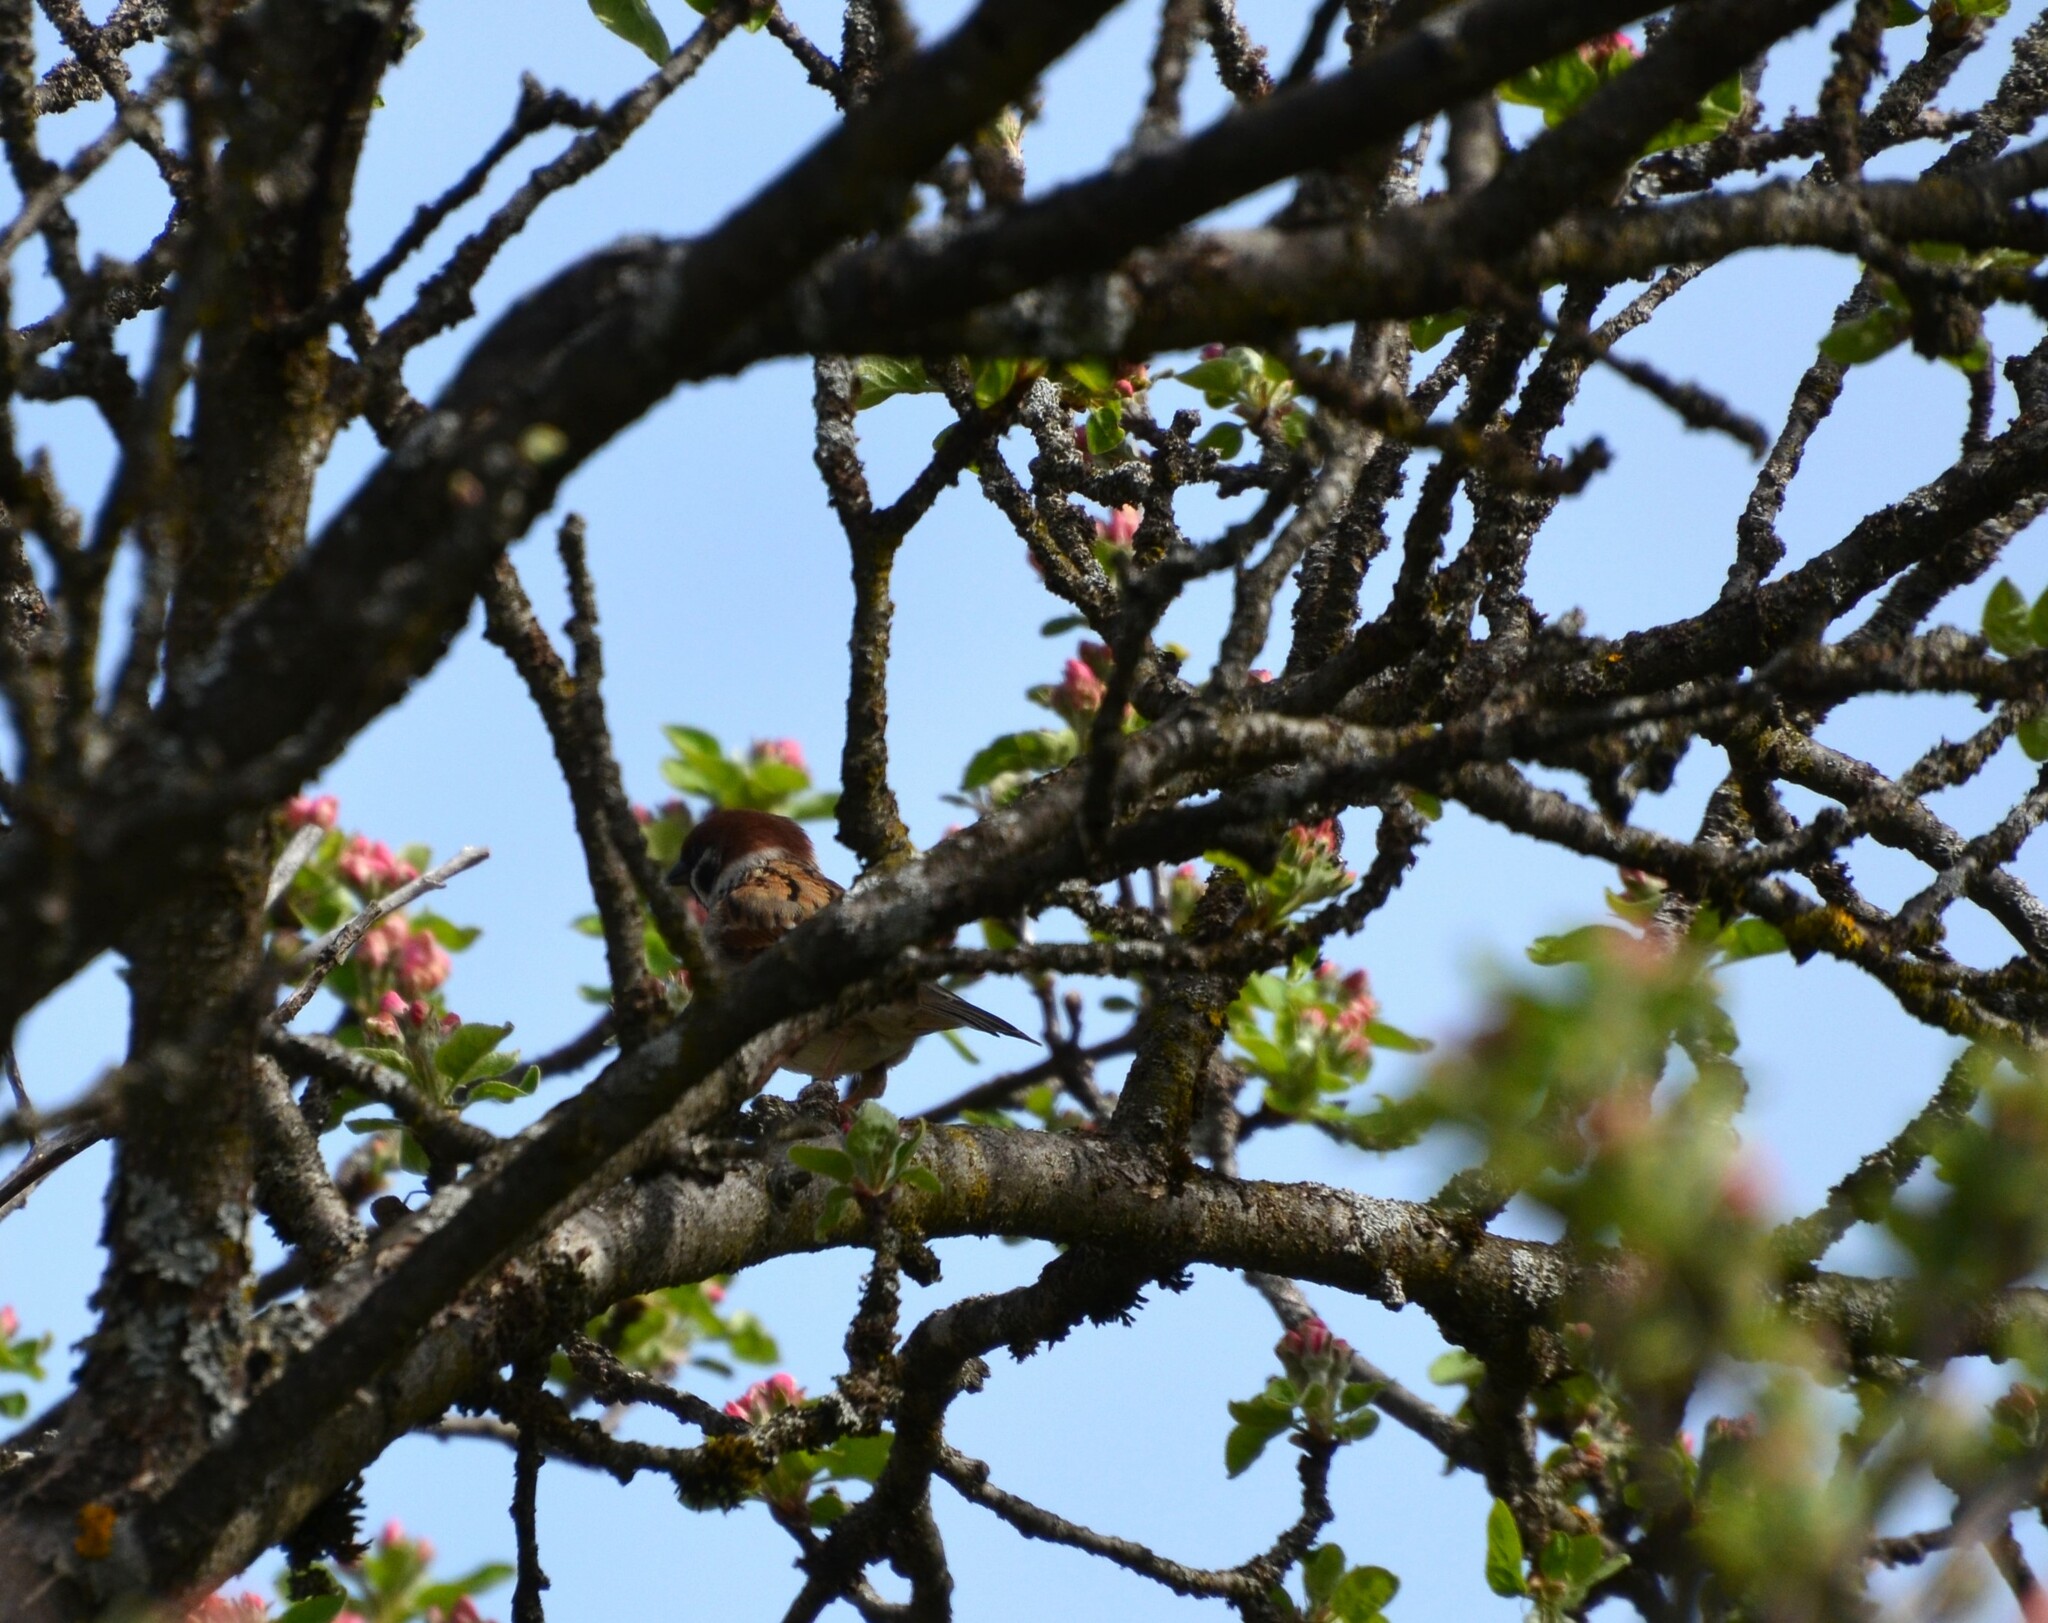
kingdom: Animalia
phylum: Chordata
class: Aves
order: Passeriformes
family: Passeridae
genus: Passer
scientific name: Passer montanus
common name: Eurasian tree sparrow
